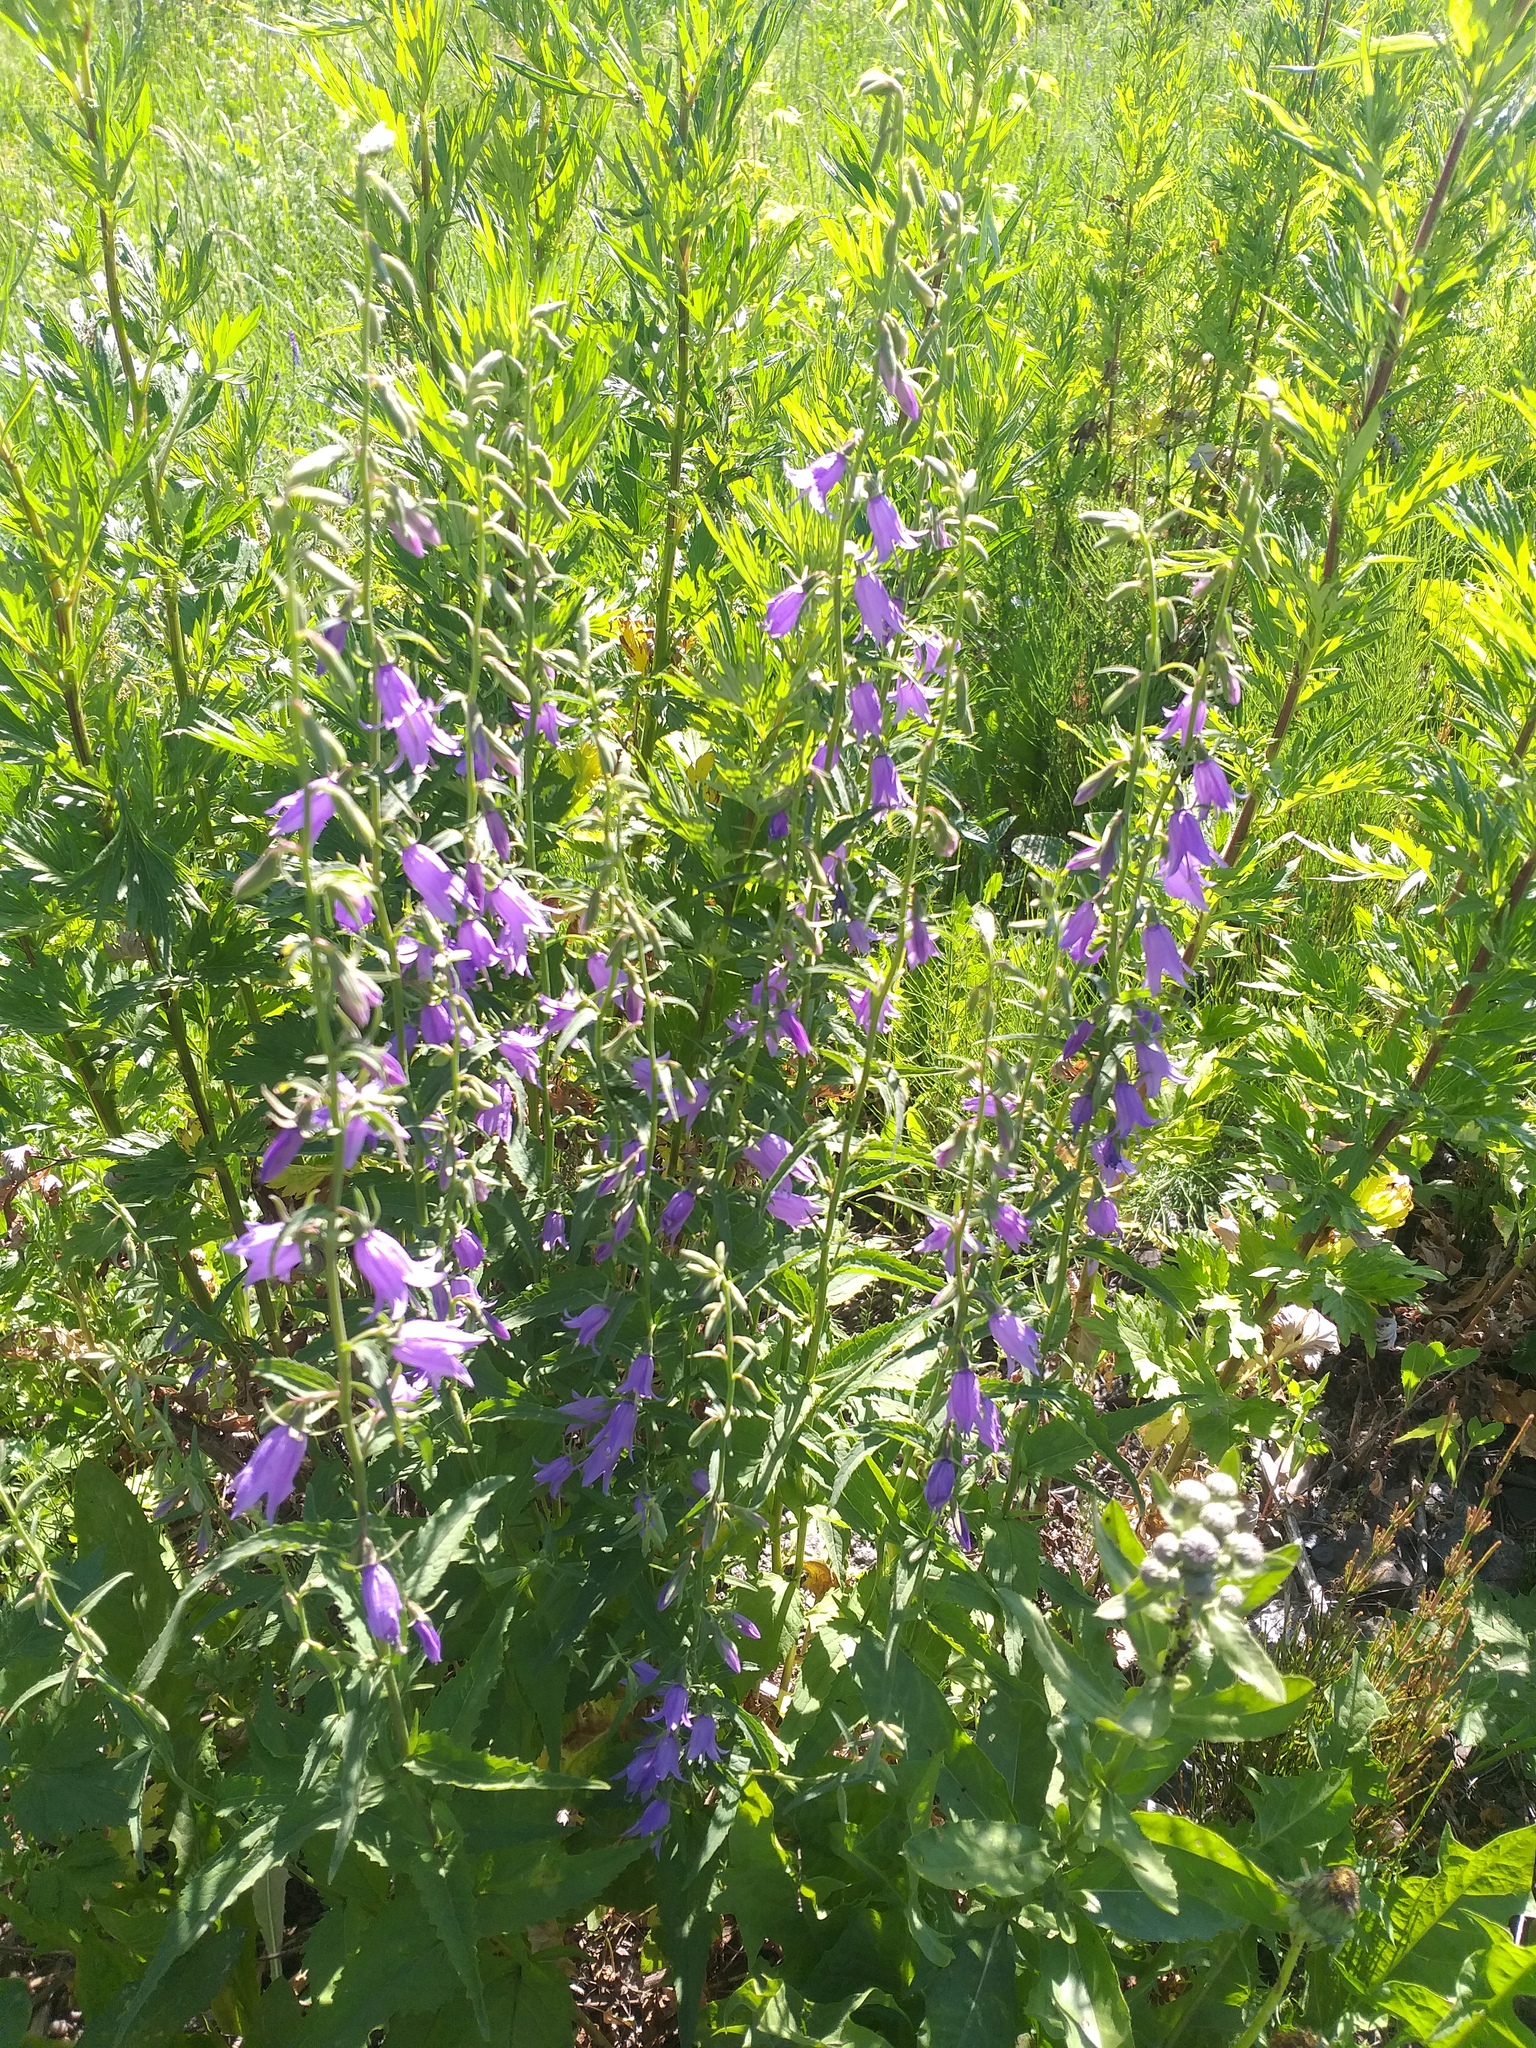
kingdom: Plantae
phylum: Tracheophyta
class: Magnoliopsida
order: Asterales
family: Campanulaceae
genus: Campanula
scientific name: Campanula rapunculoides
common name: Creeping bellflower
